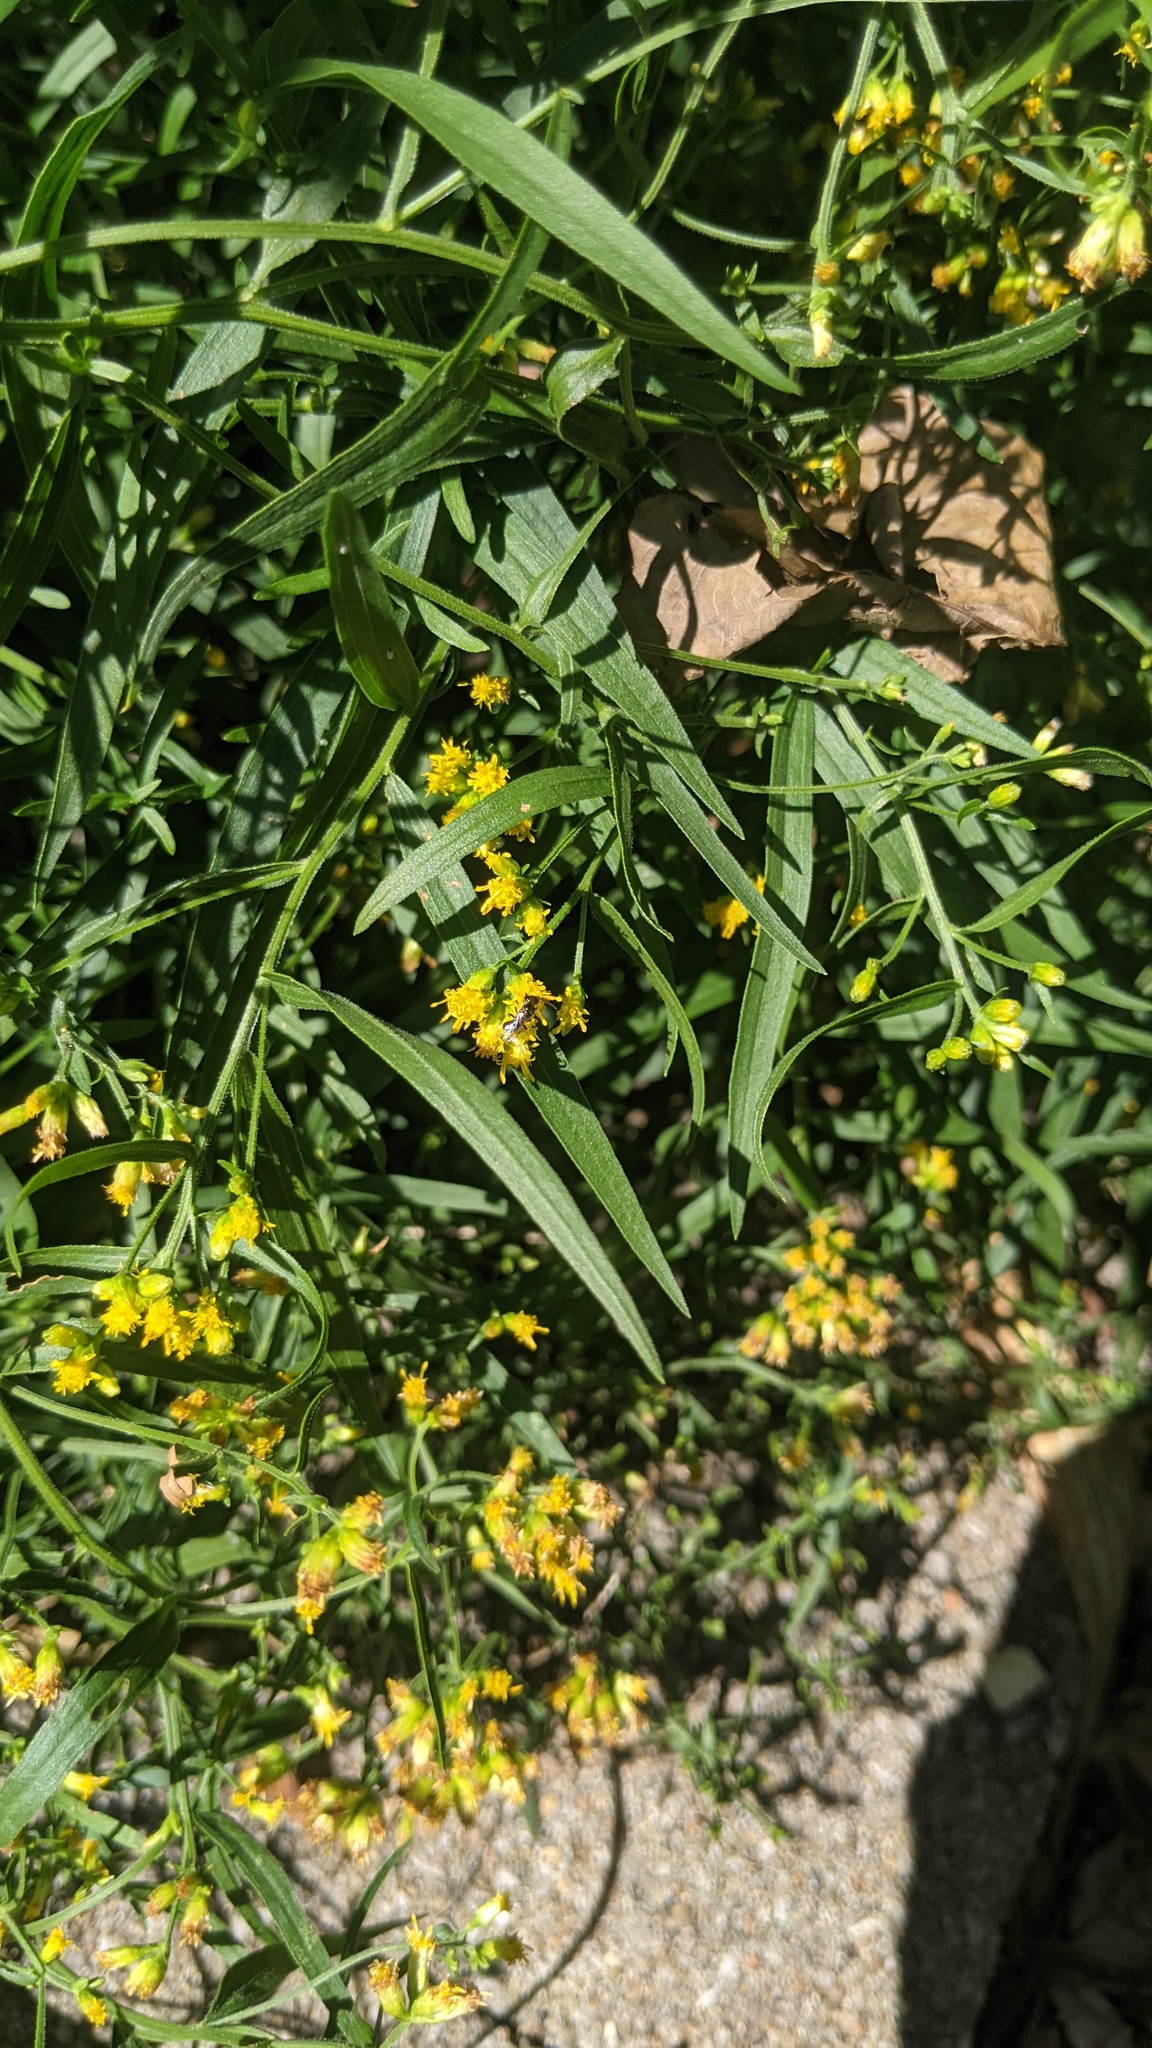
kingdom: Animalia
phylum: Arthropoda
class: Insecta
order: Hymenoptera
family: Halictidae
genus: Dialictus
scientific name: Dialictus
